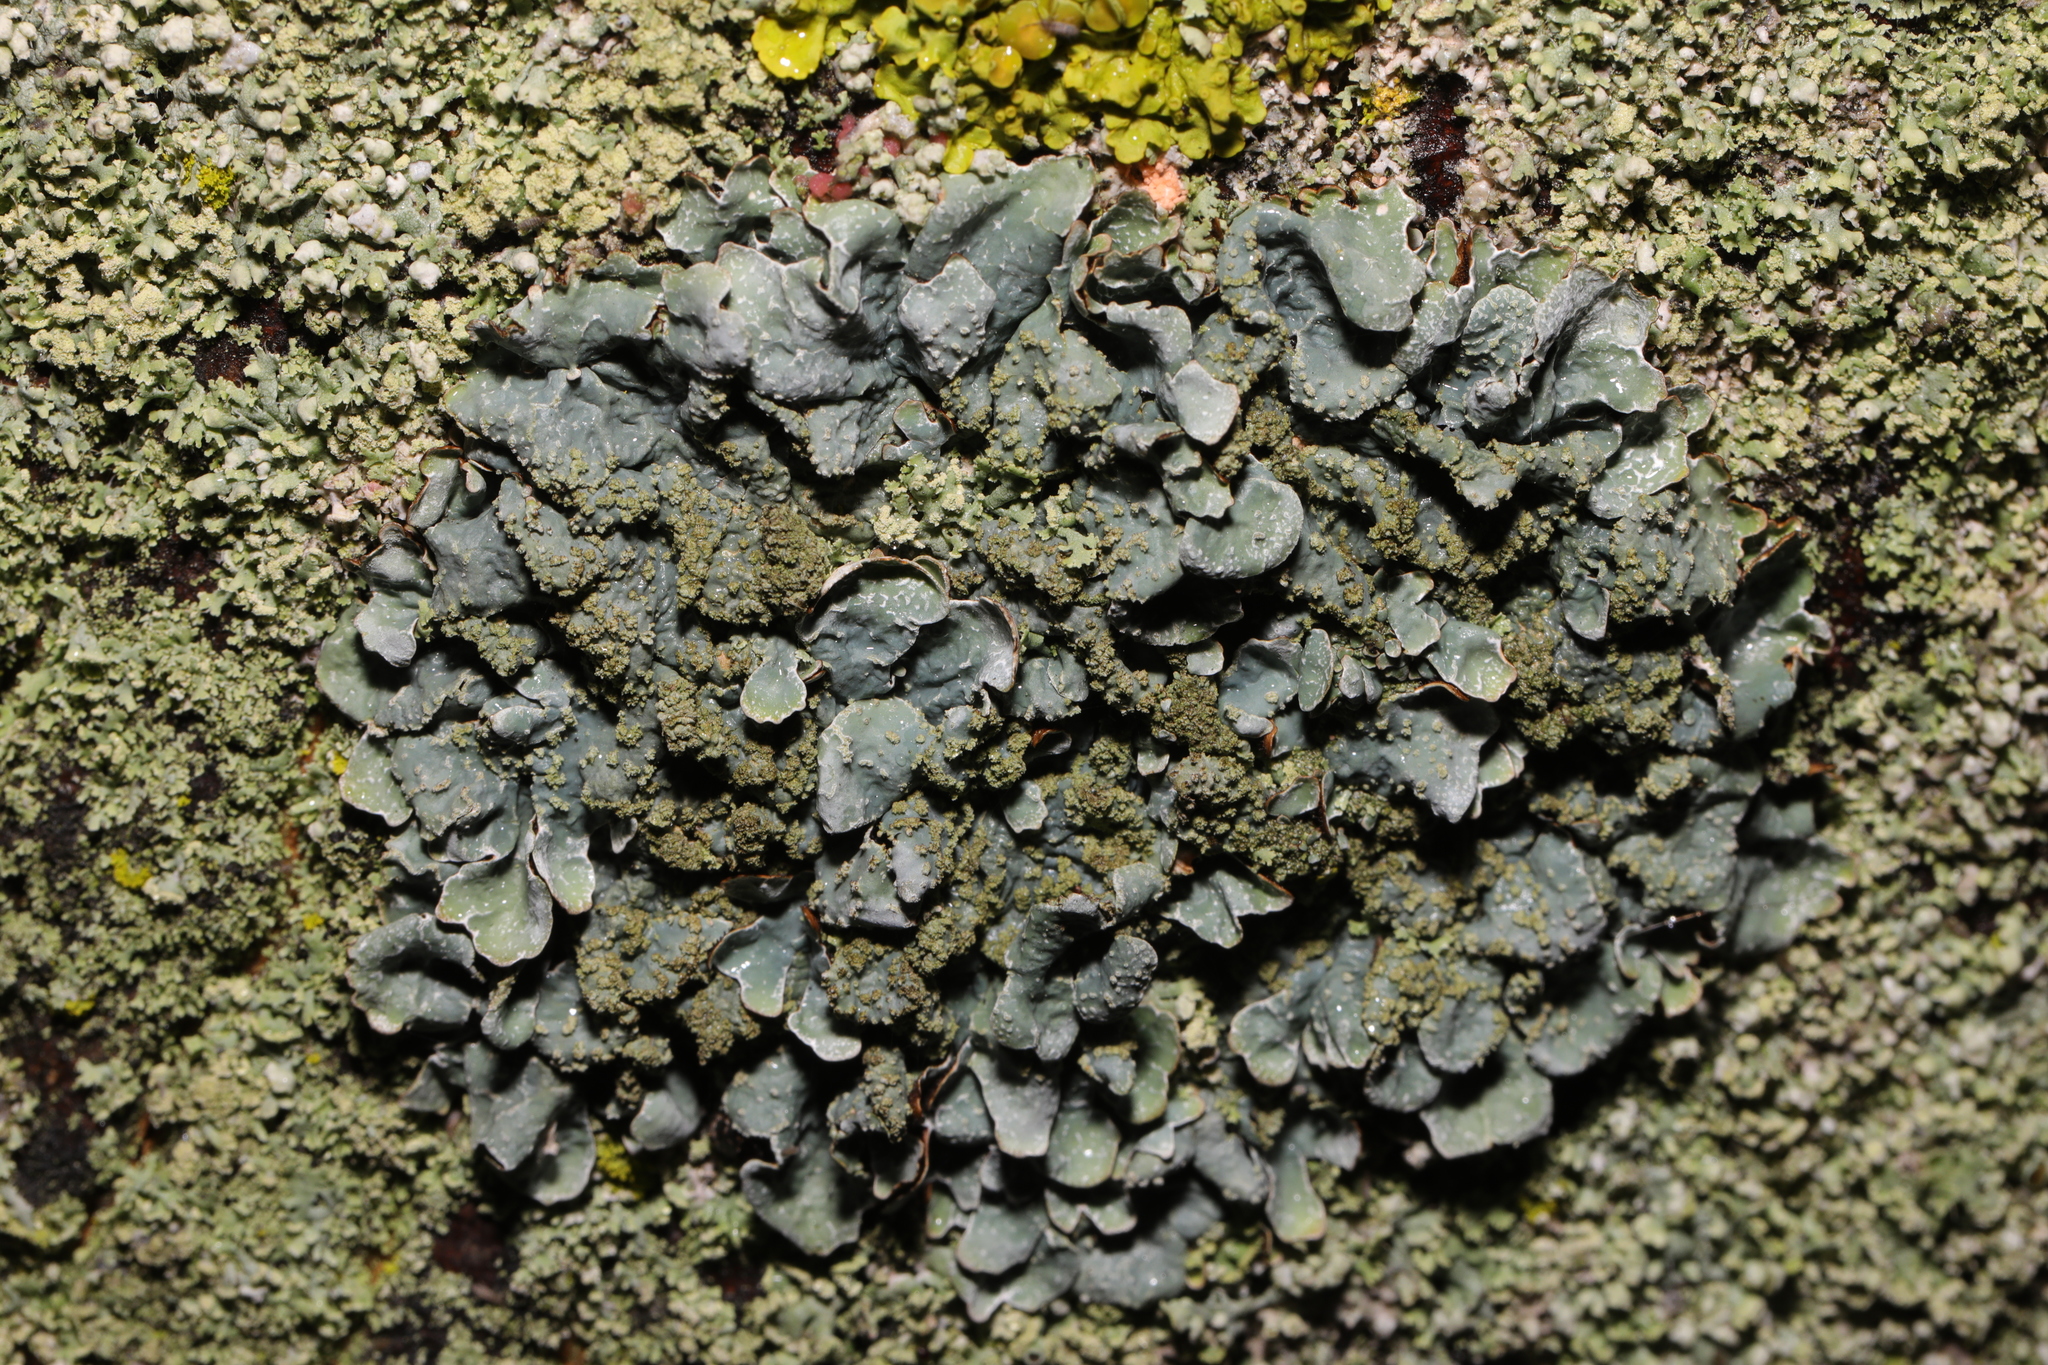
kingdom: Fungi
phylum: Ascomycota
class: Lecanoromycetes
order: Lecanorales
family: Parmeliaceae
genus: Parmelia
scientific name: Parmelia sulcata
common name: Netted shield lichen
